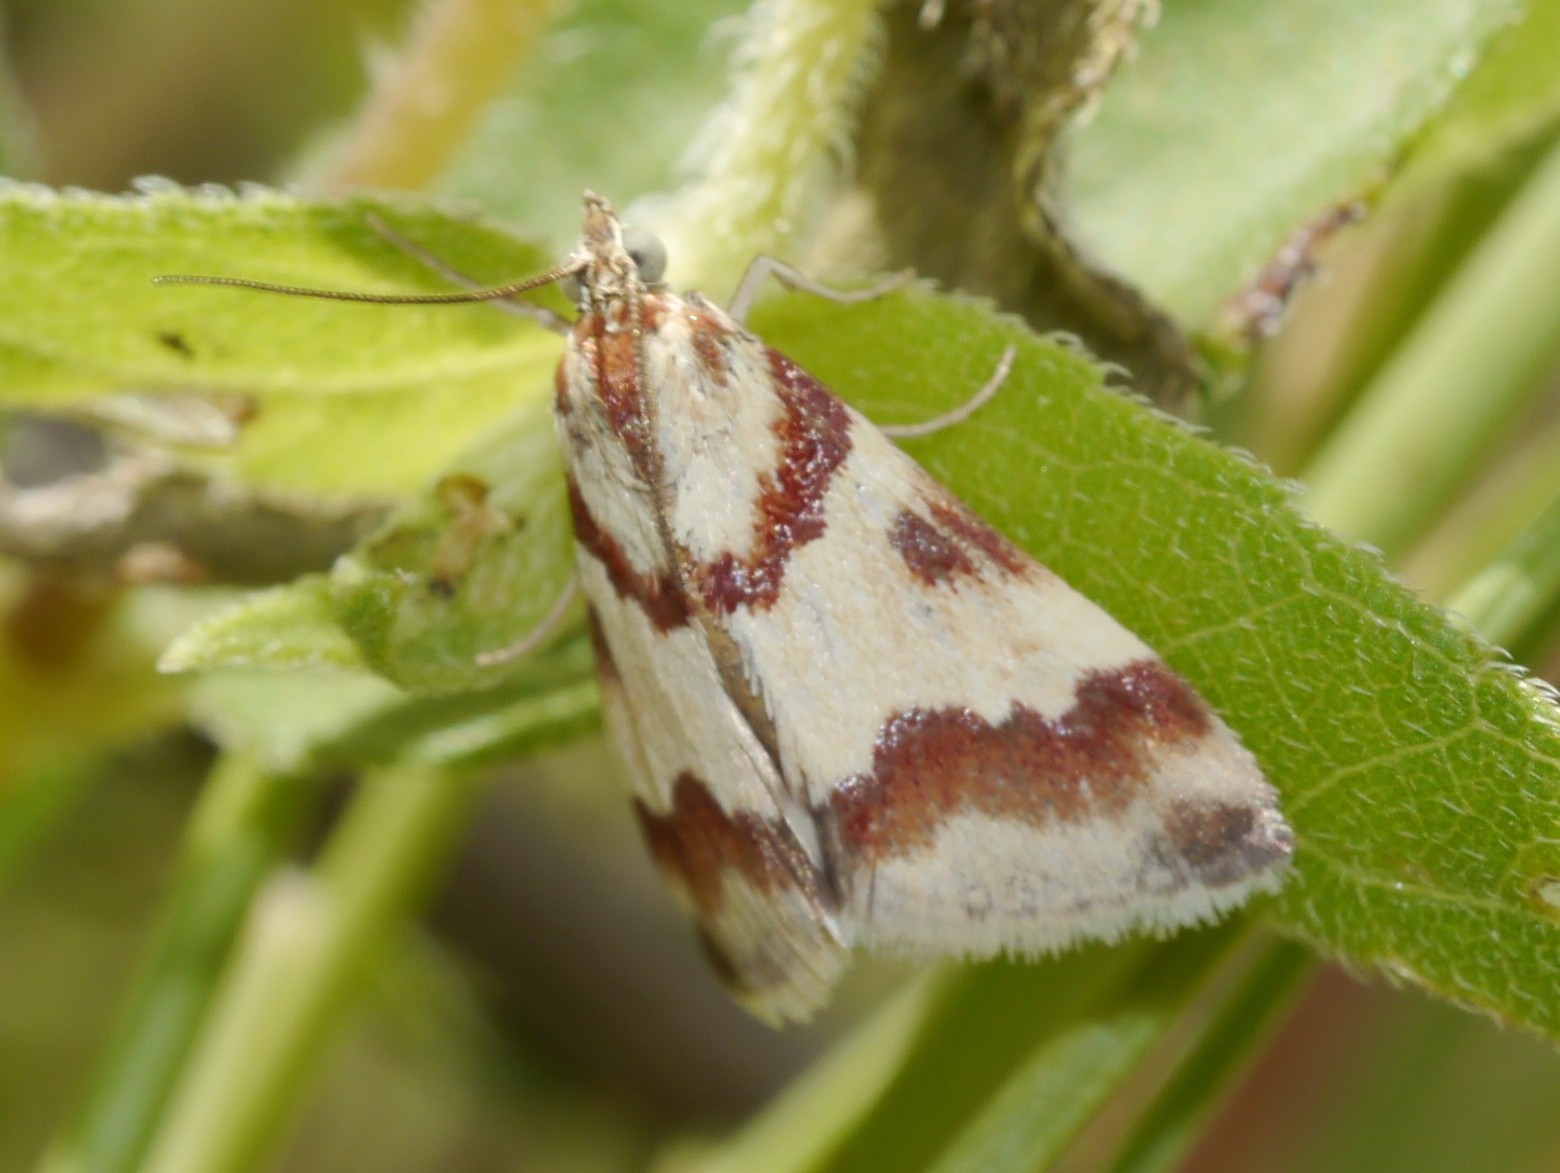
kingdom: Animalia
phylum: Arthropoda
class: Insecta
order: Lepidoptera
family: Crambidae
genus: Noctuelia
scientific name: Noctuelia Mimoschinia rufofascialis
